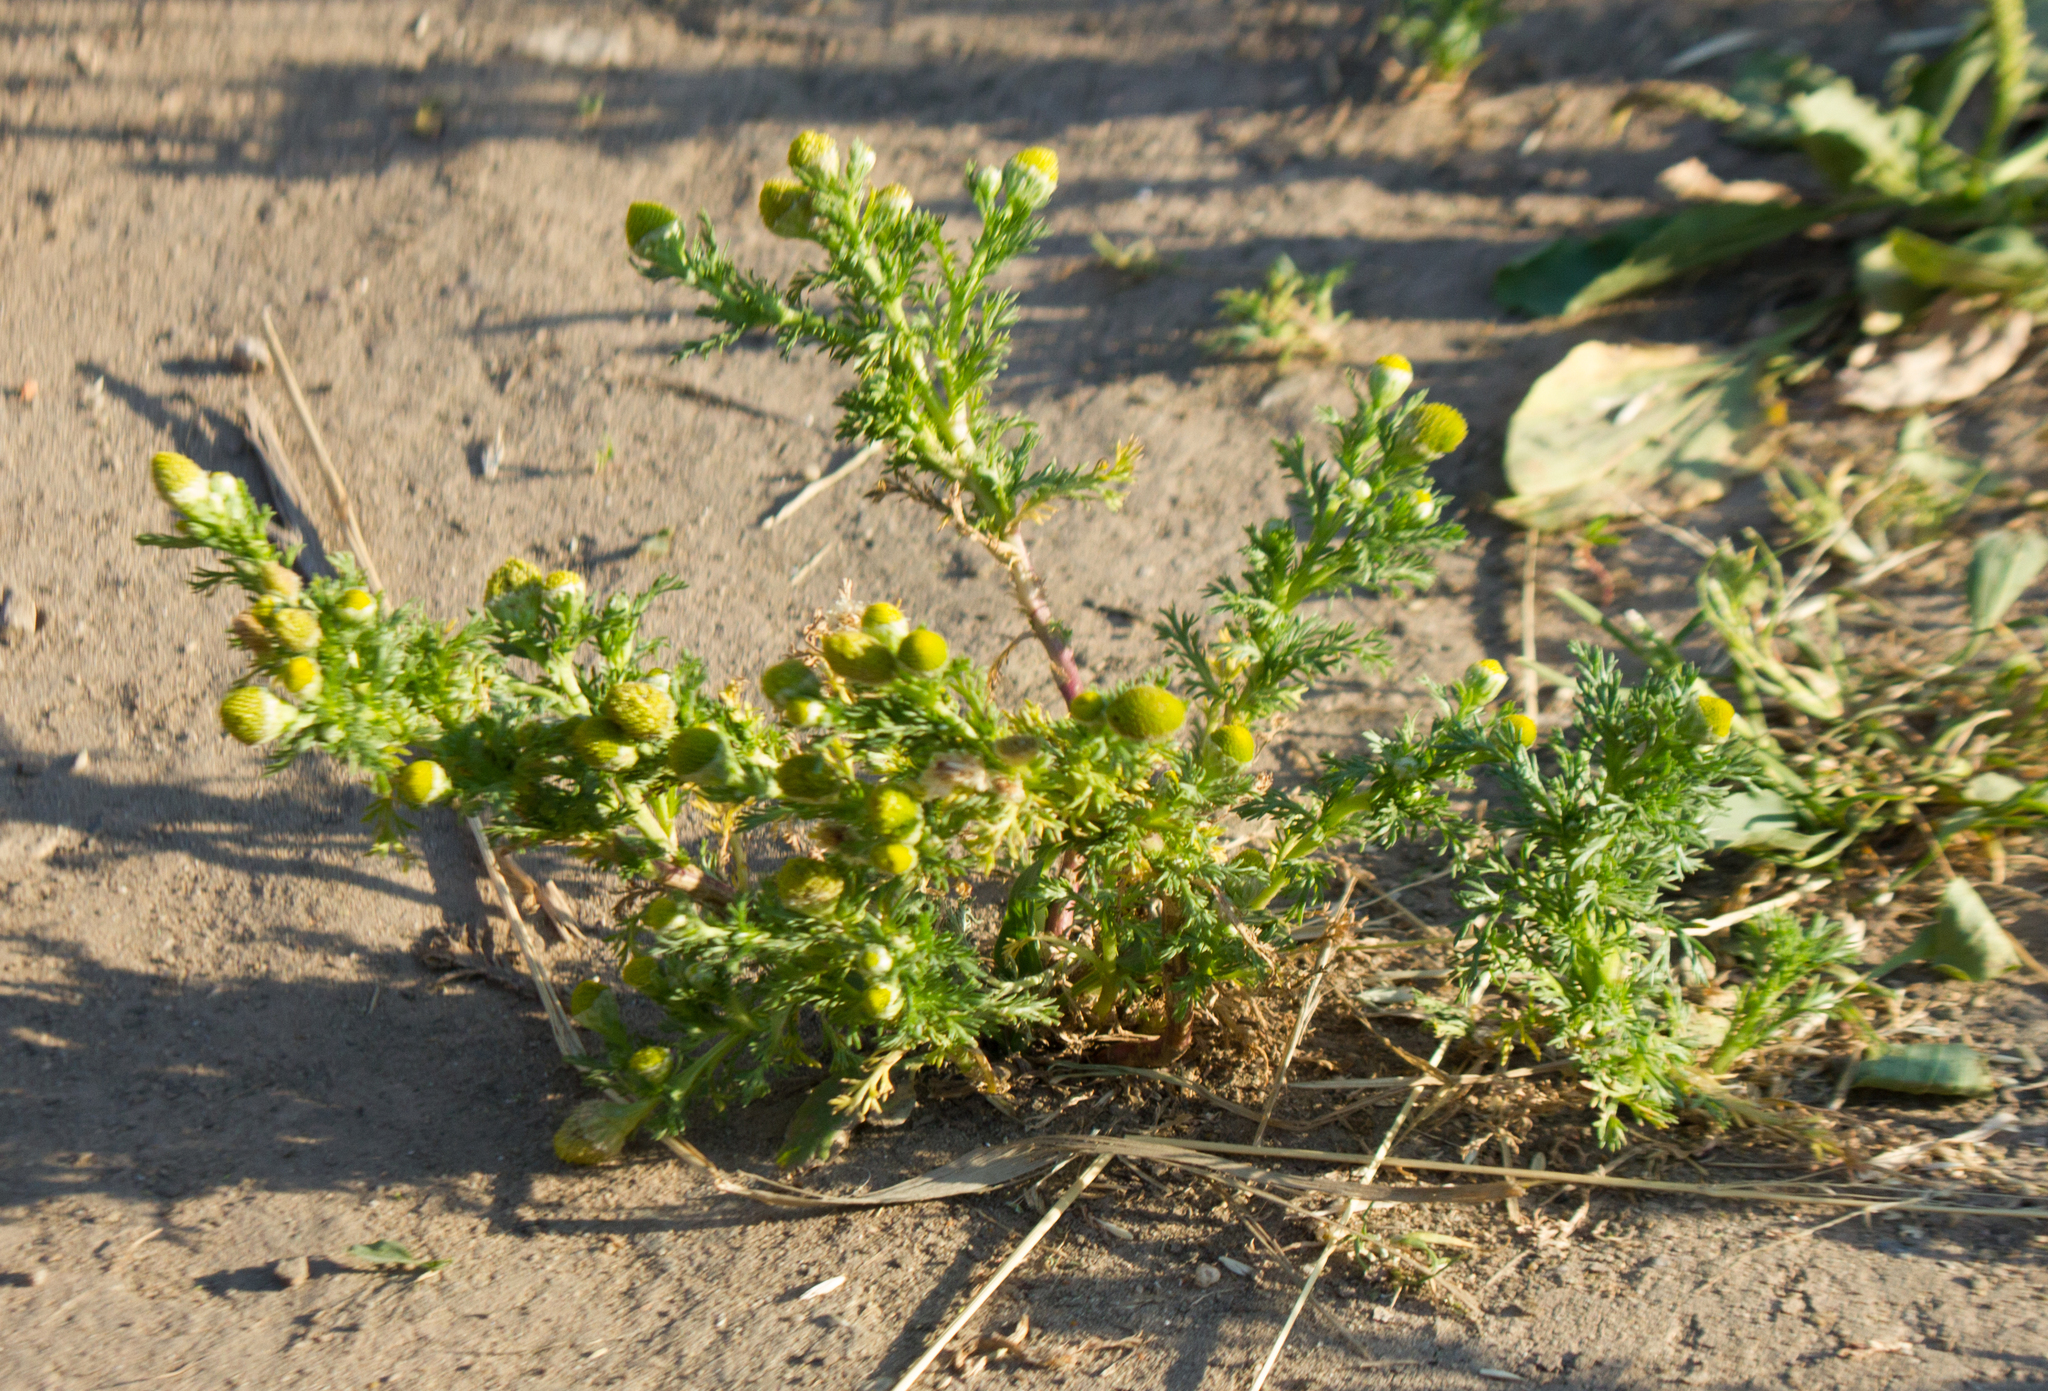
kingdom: Plantae
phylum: Tracheophyta
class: Magnoliopsida
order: Asterales
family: Asteraceae
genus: Matricaria
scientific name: Matricaria discoidea
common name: Disc mayweed
